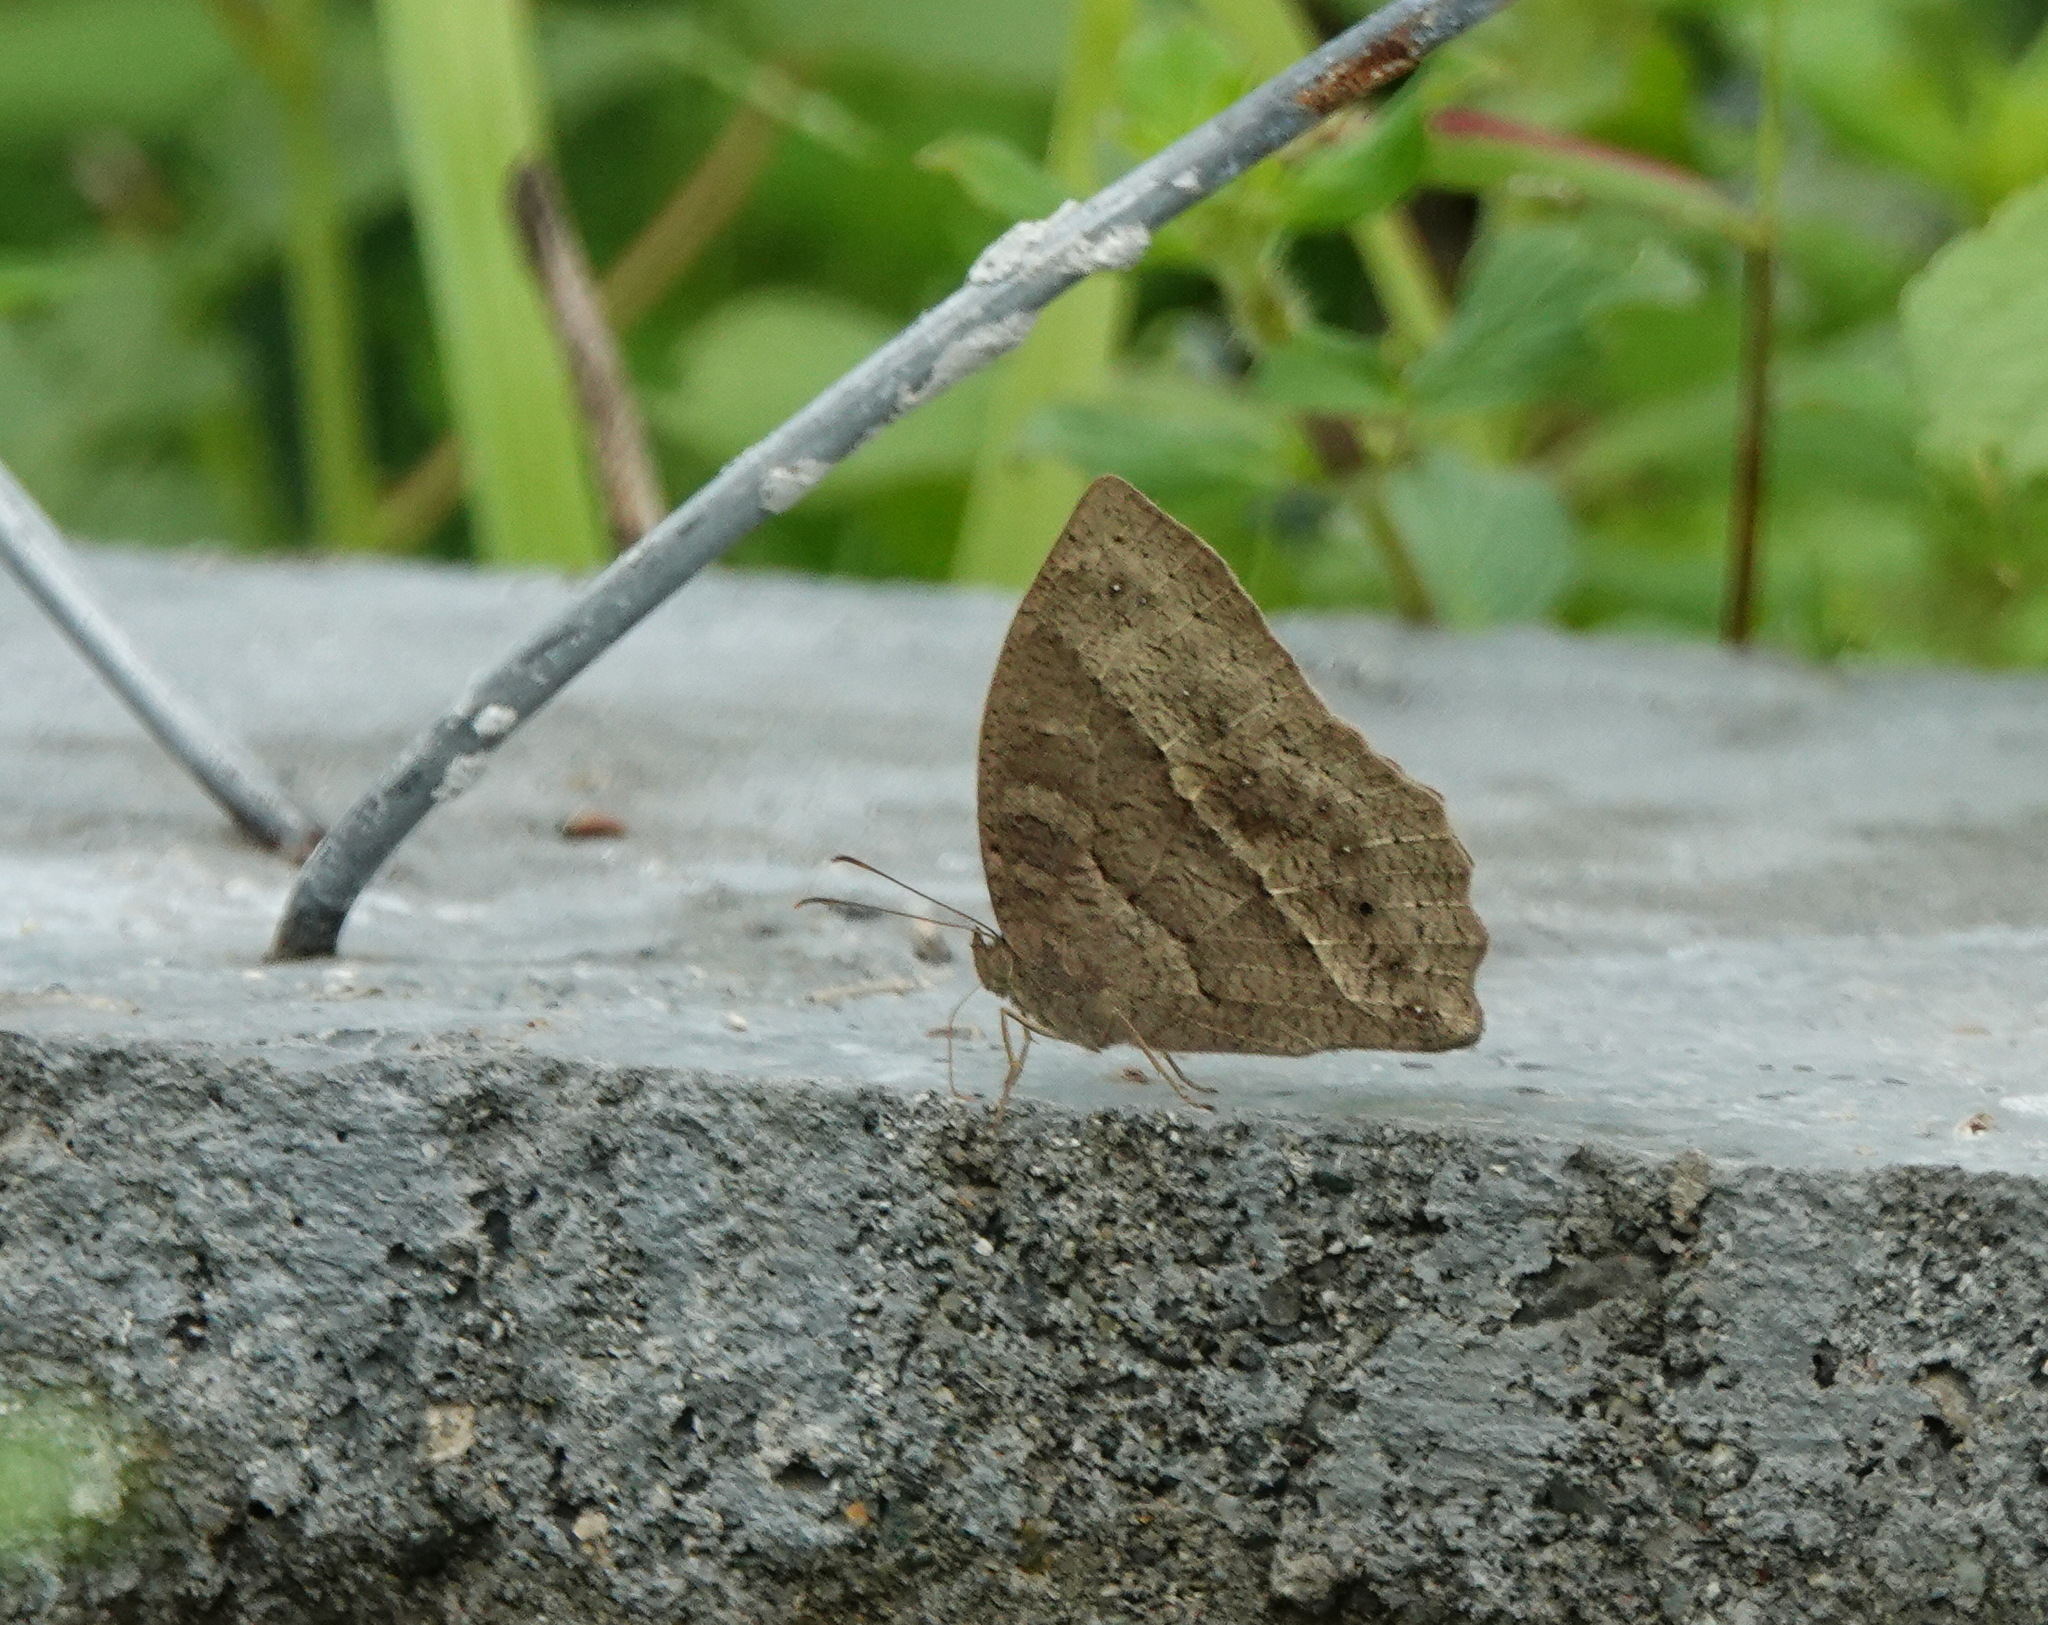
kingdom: Animalia
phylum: Arthropoda
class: Insecta
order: Lepidoptera
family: Nymphalidae
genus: Mycalesis
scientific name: Mycalesis visala
